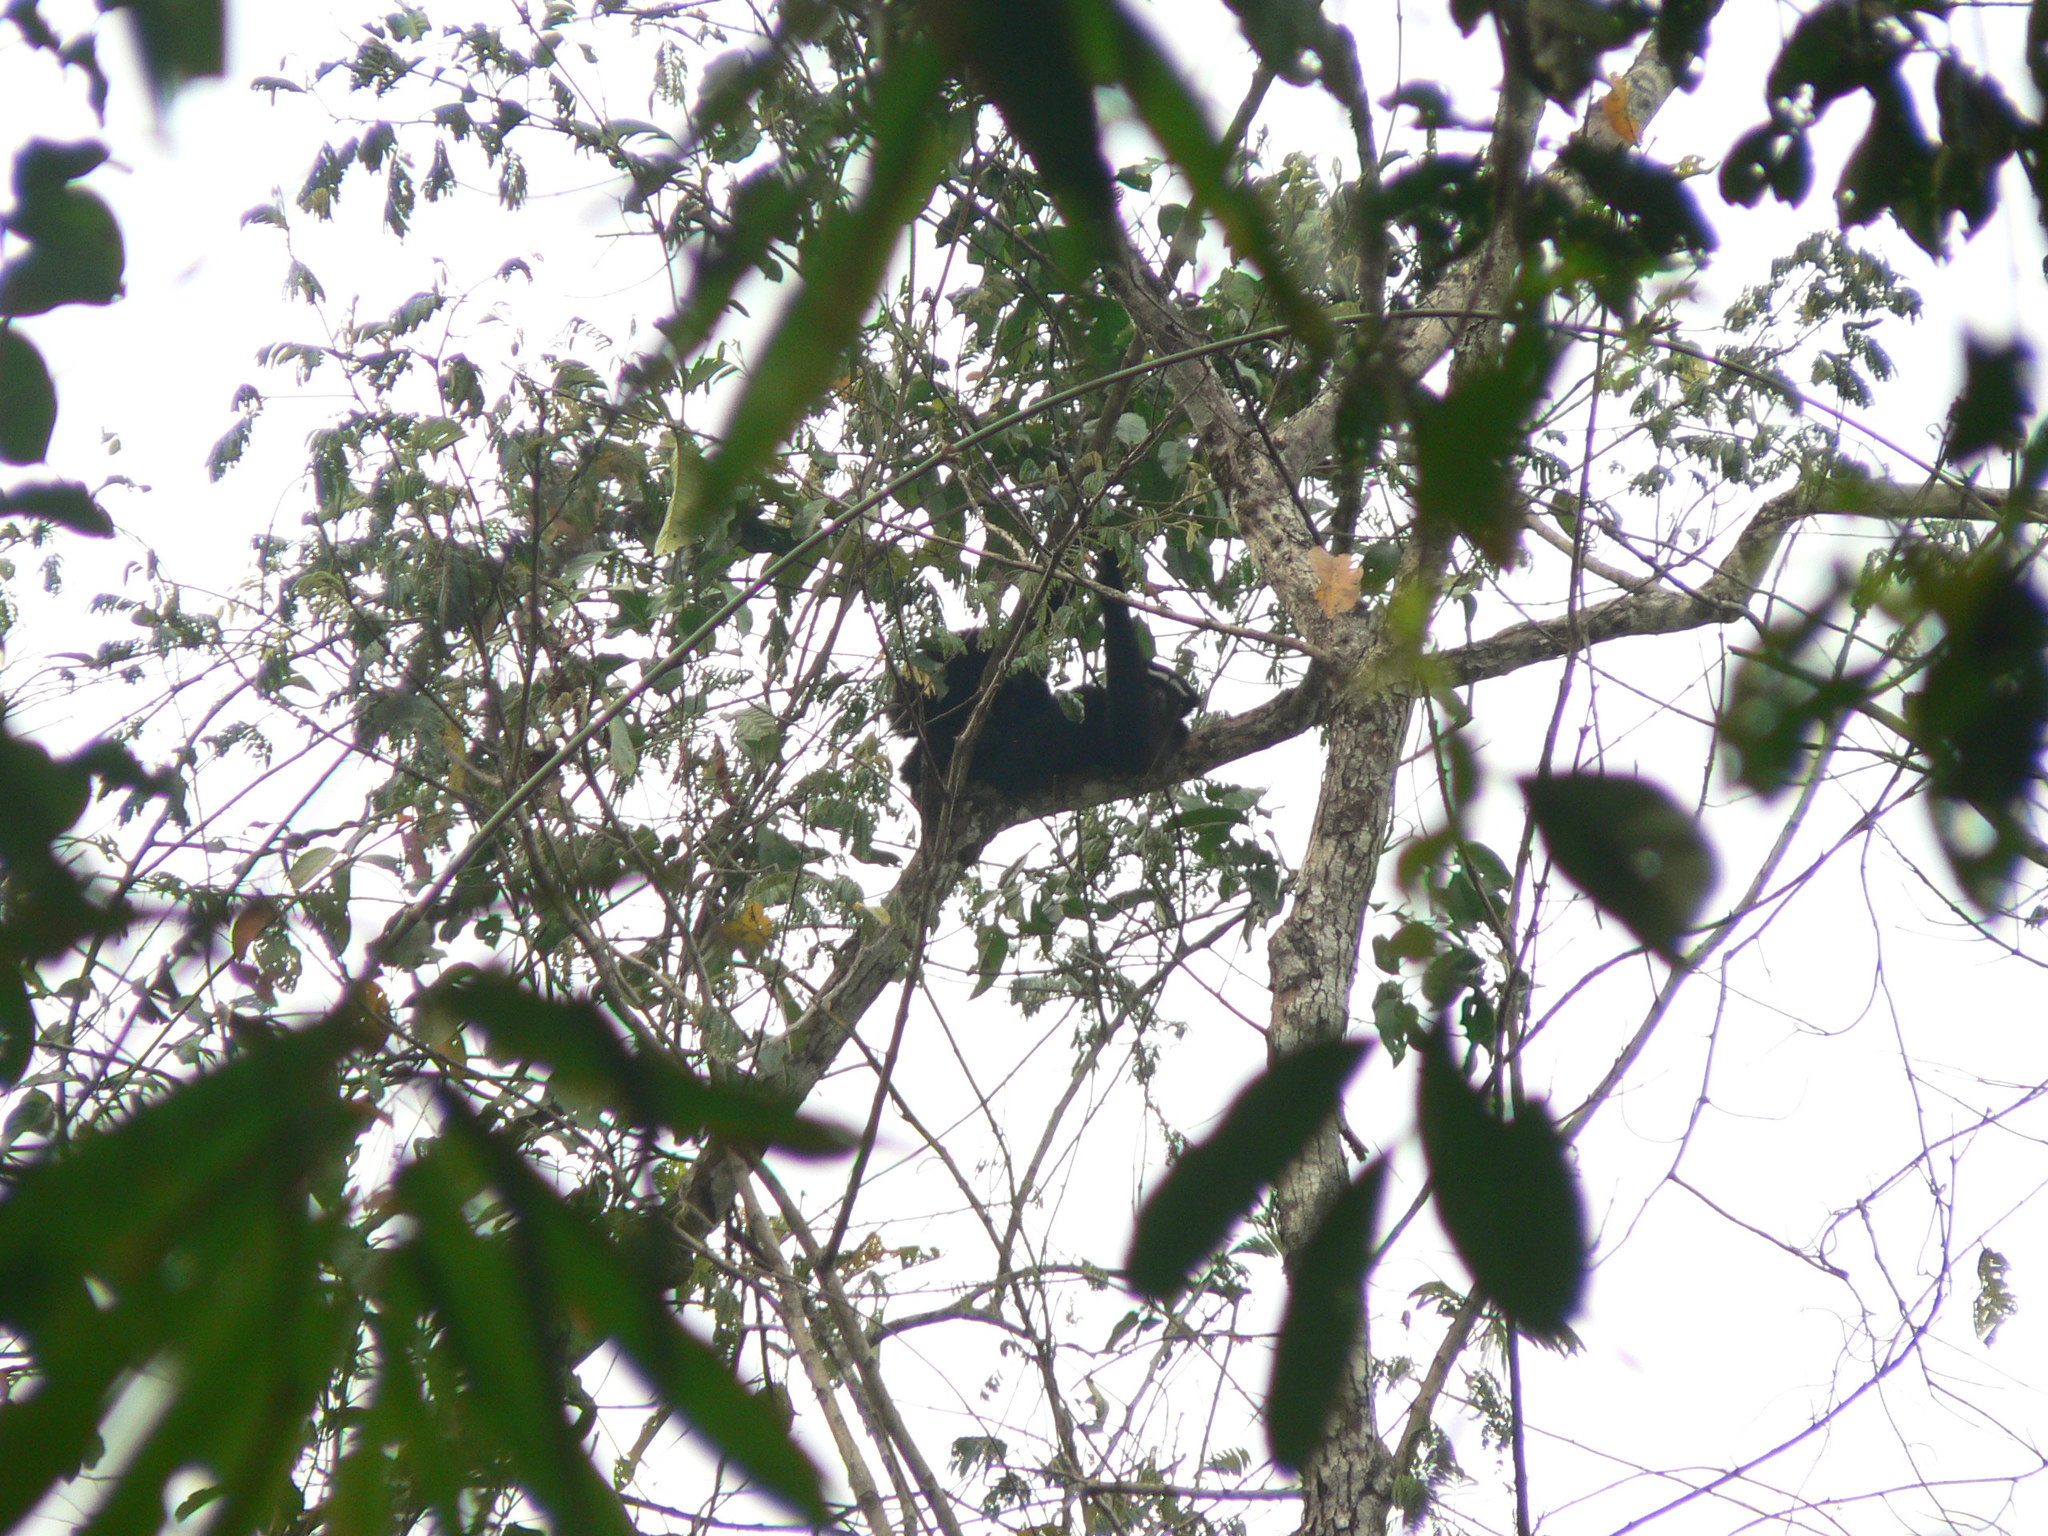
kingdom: Animalia
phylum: Chordata
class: Mammalia
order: Primates
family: Hylobatidae
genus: Hoolock
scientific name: Hoolock hoolock
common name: Western hoolock gibbon
